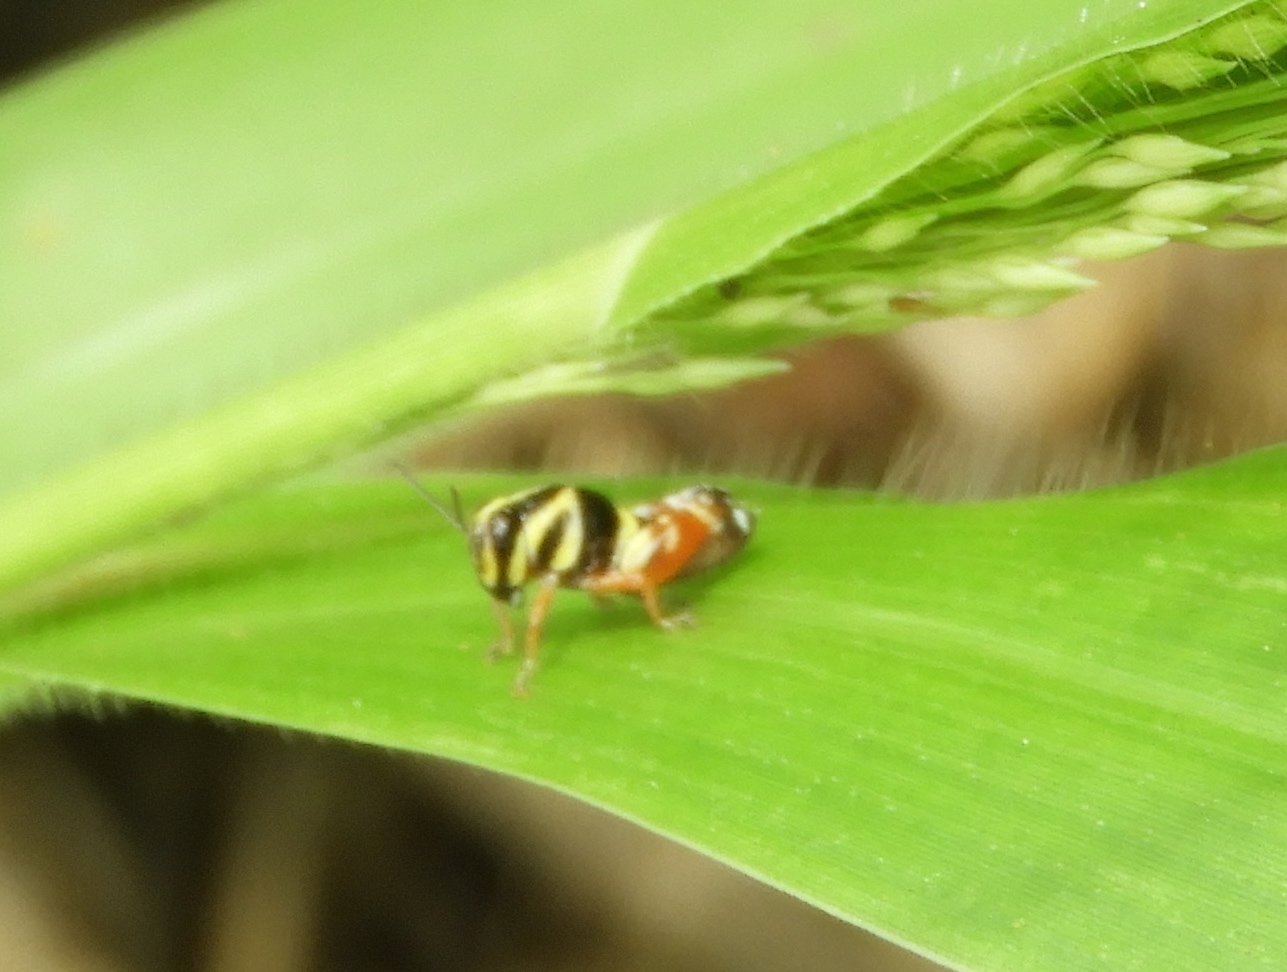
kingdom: Animalia
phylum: Arthropoda
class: Insecta
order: Orthoptera
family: Acrididae
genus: Aidemona
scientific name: Aidemona azteca
